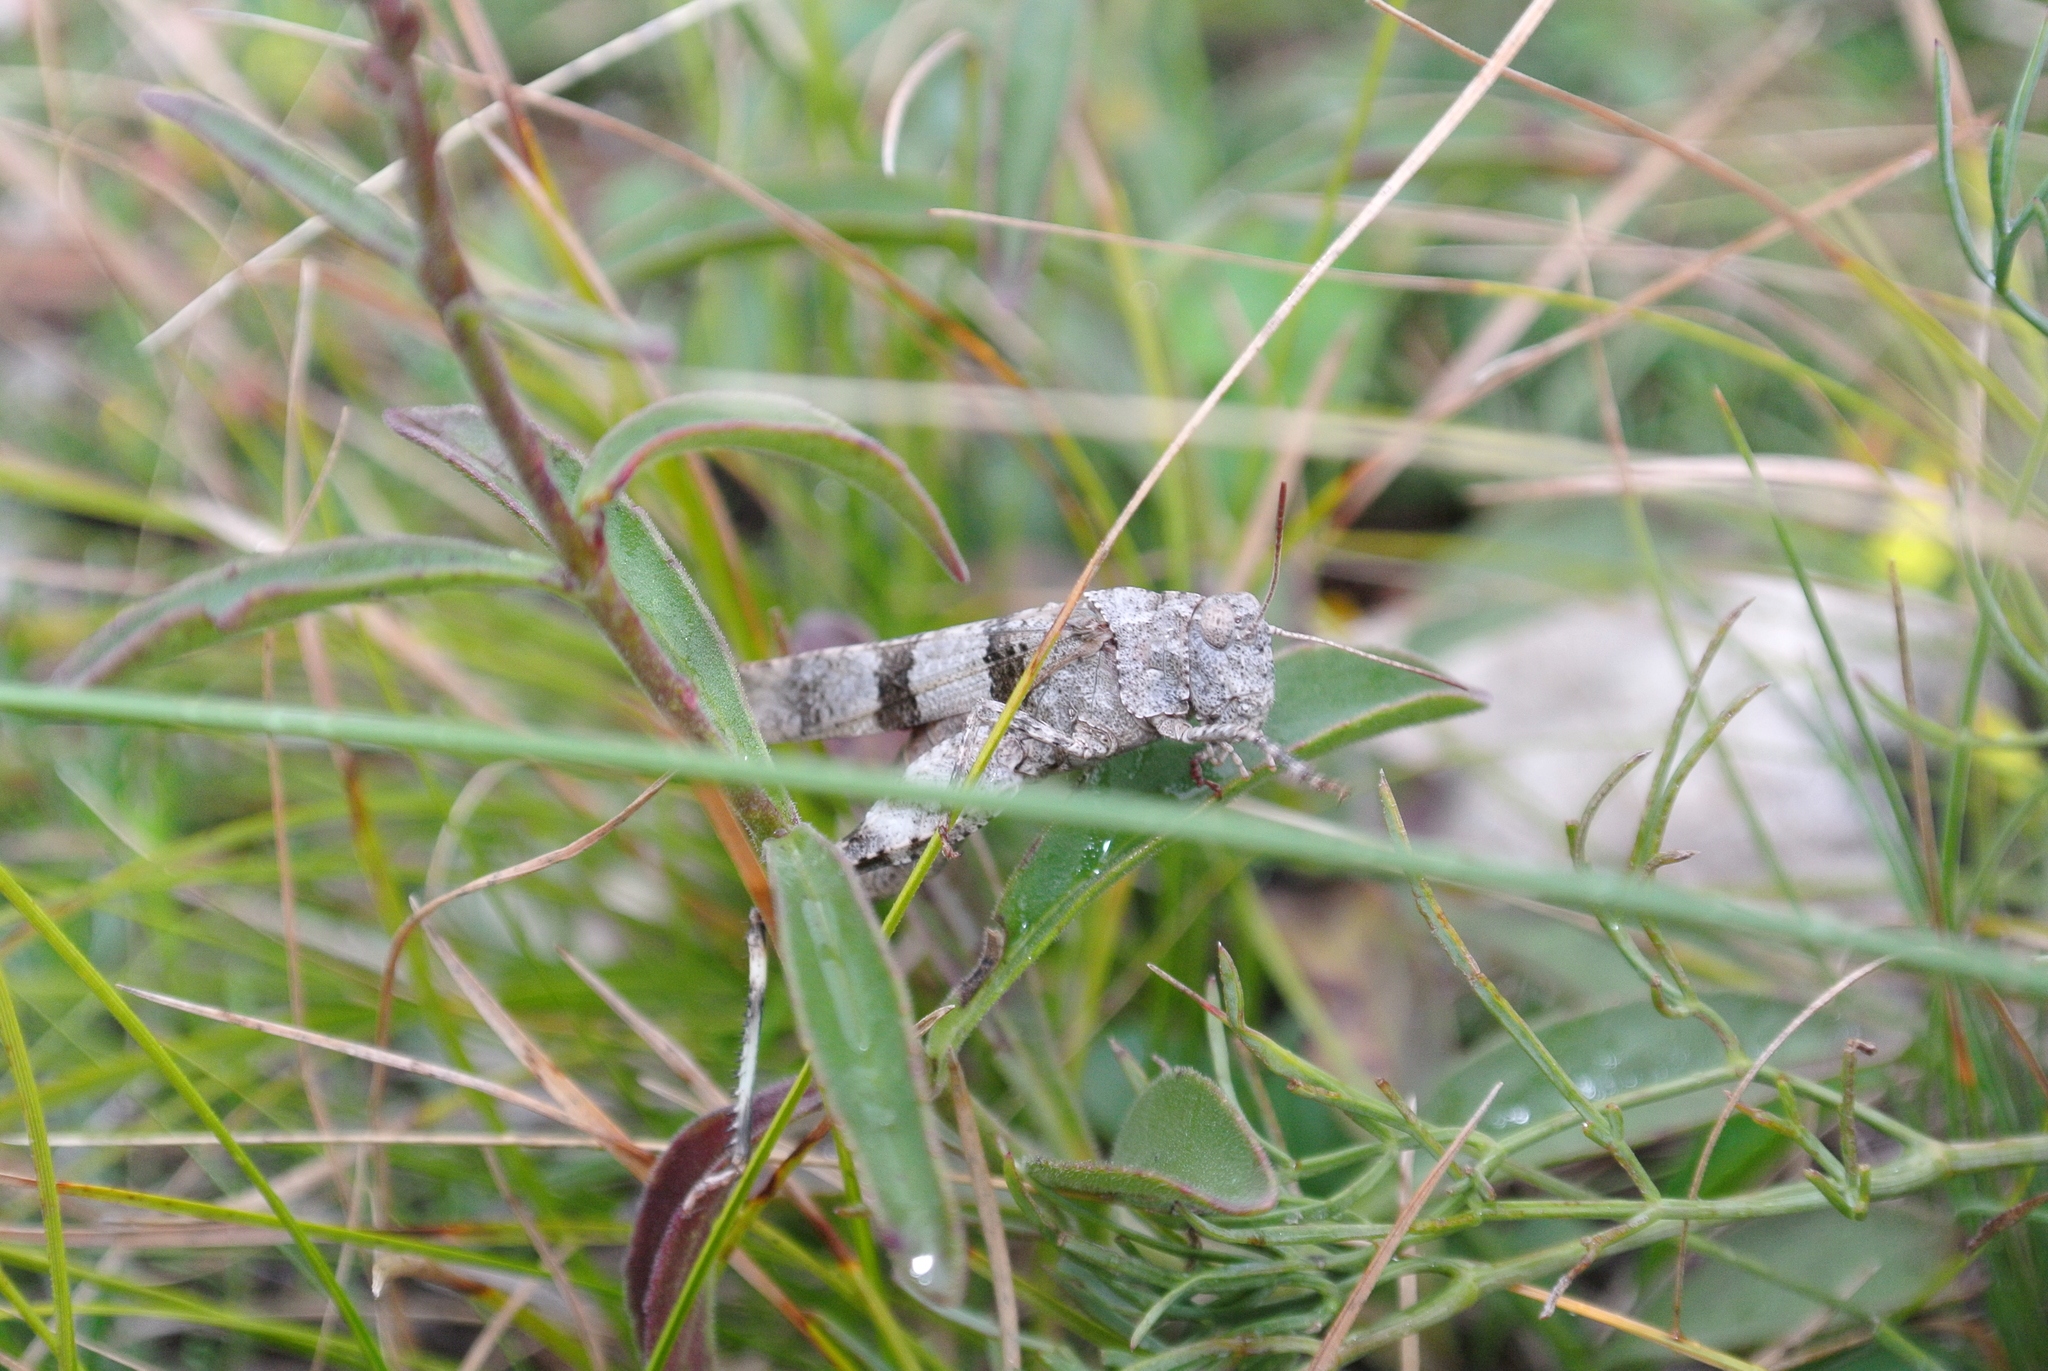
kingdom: Animalia
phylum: Arthropoda
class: Insecta
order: Orthoptera
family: Acrididae
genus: Oedipoda
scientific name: Oedipoda caerulescens
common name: Blue-winged grasshopper
